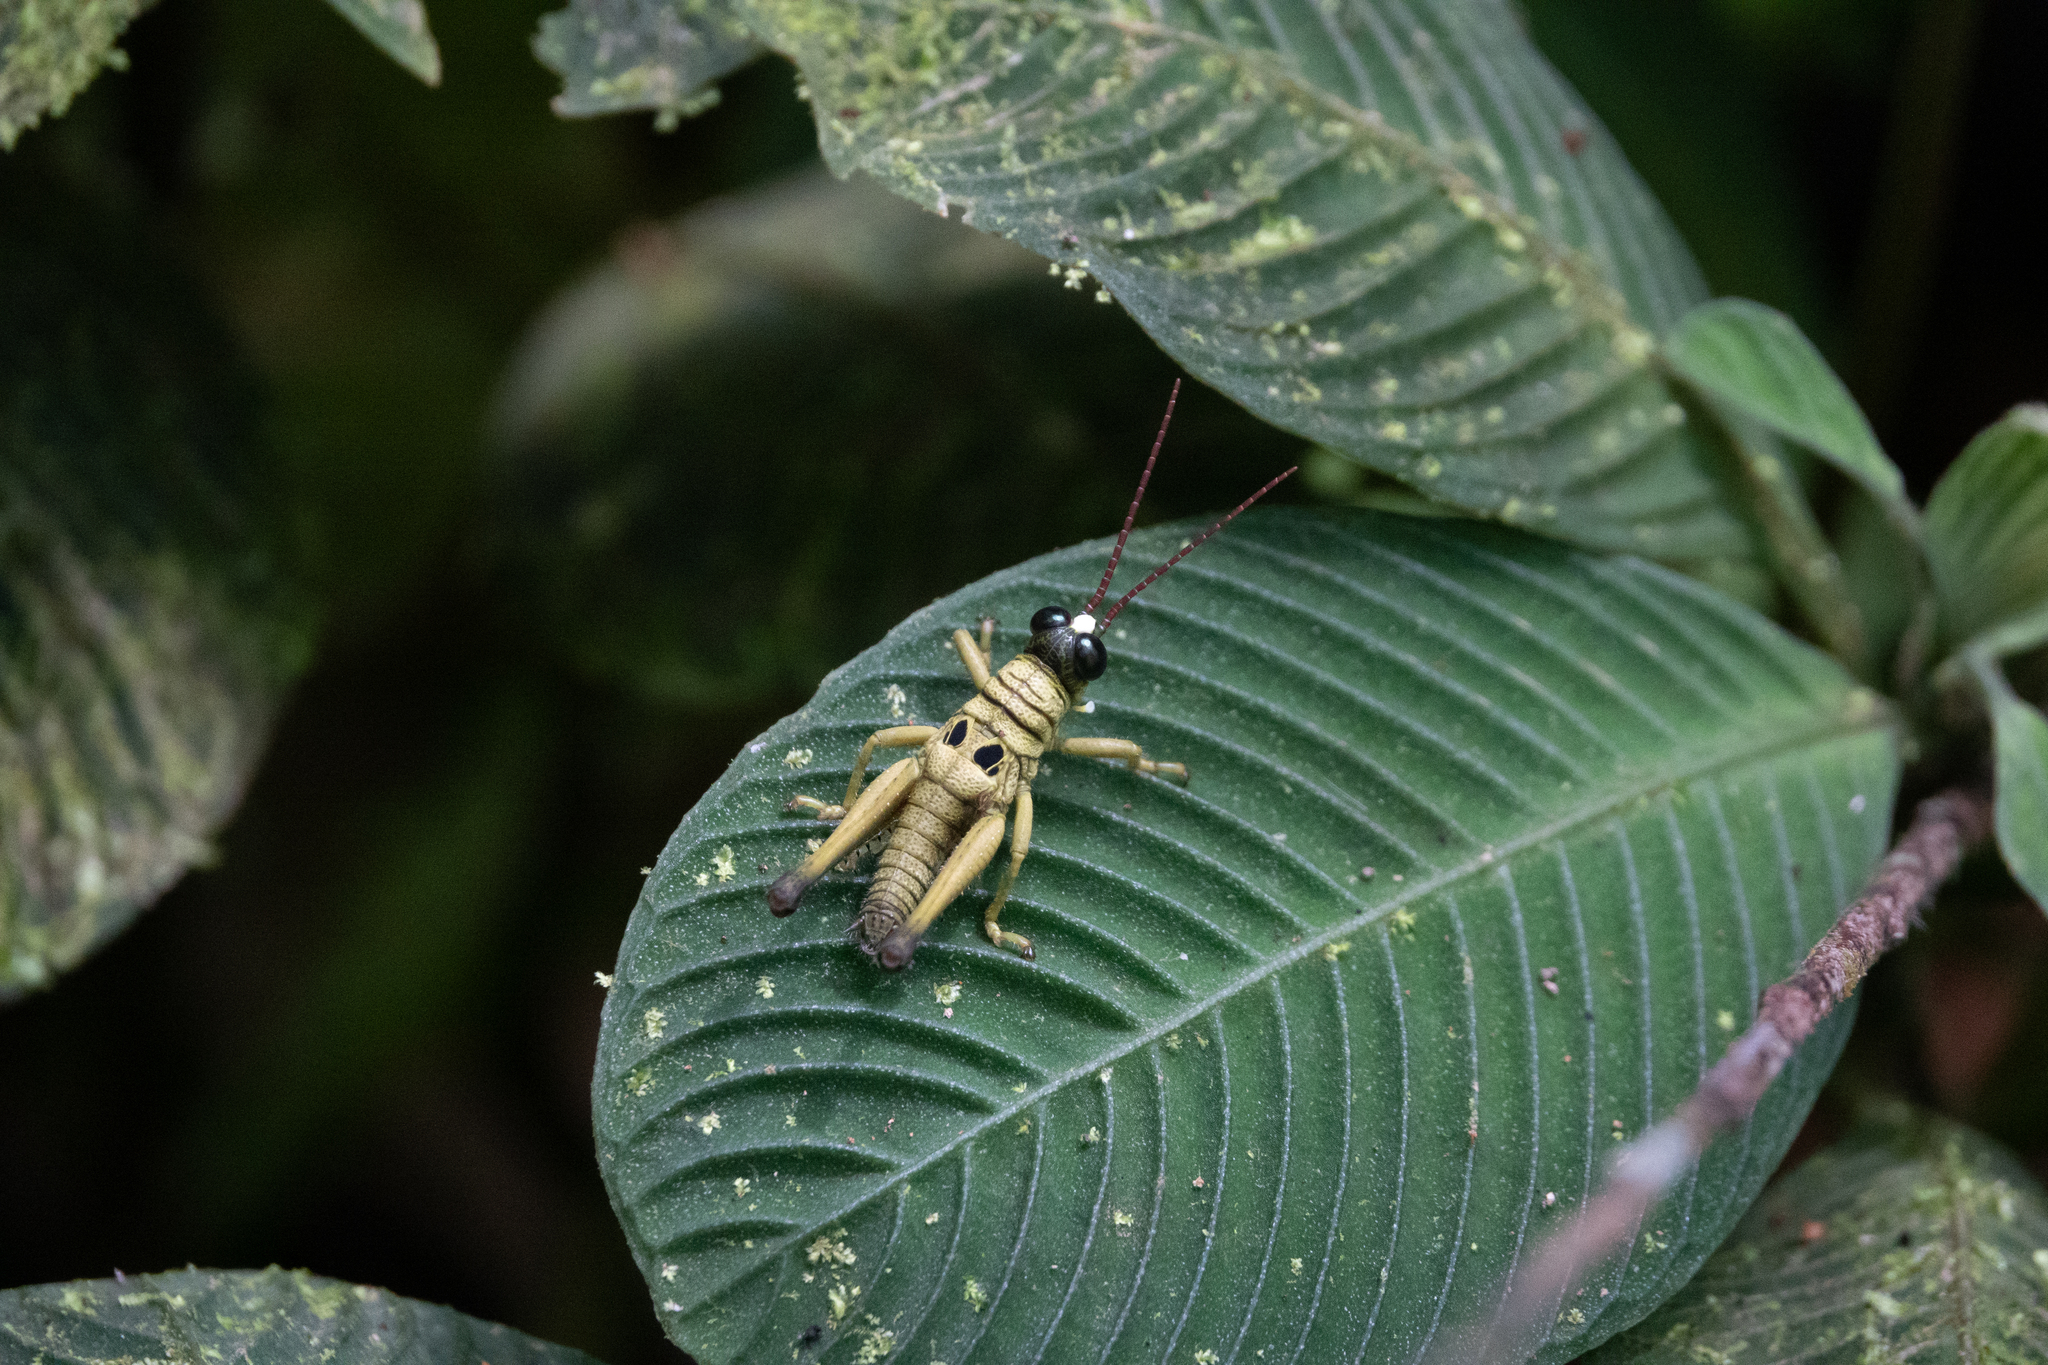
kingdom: Animalia
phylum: Arthropoda
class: Insecta
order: Orthoptera
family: Acrididae
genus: Ommatolampis
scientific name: Ommatolampis perspicillata
